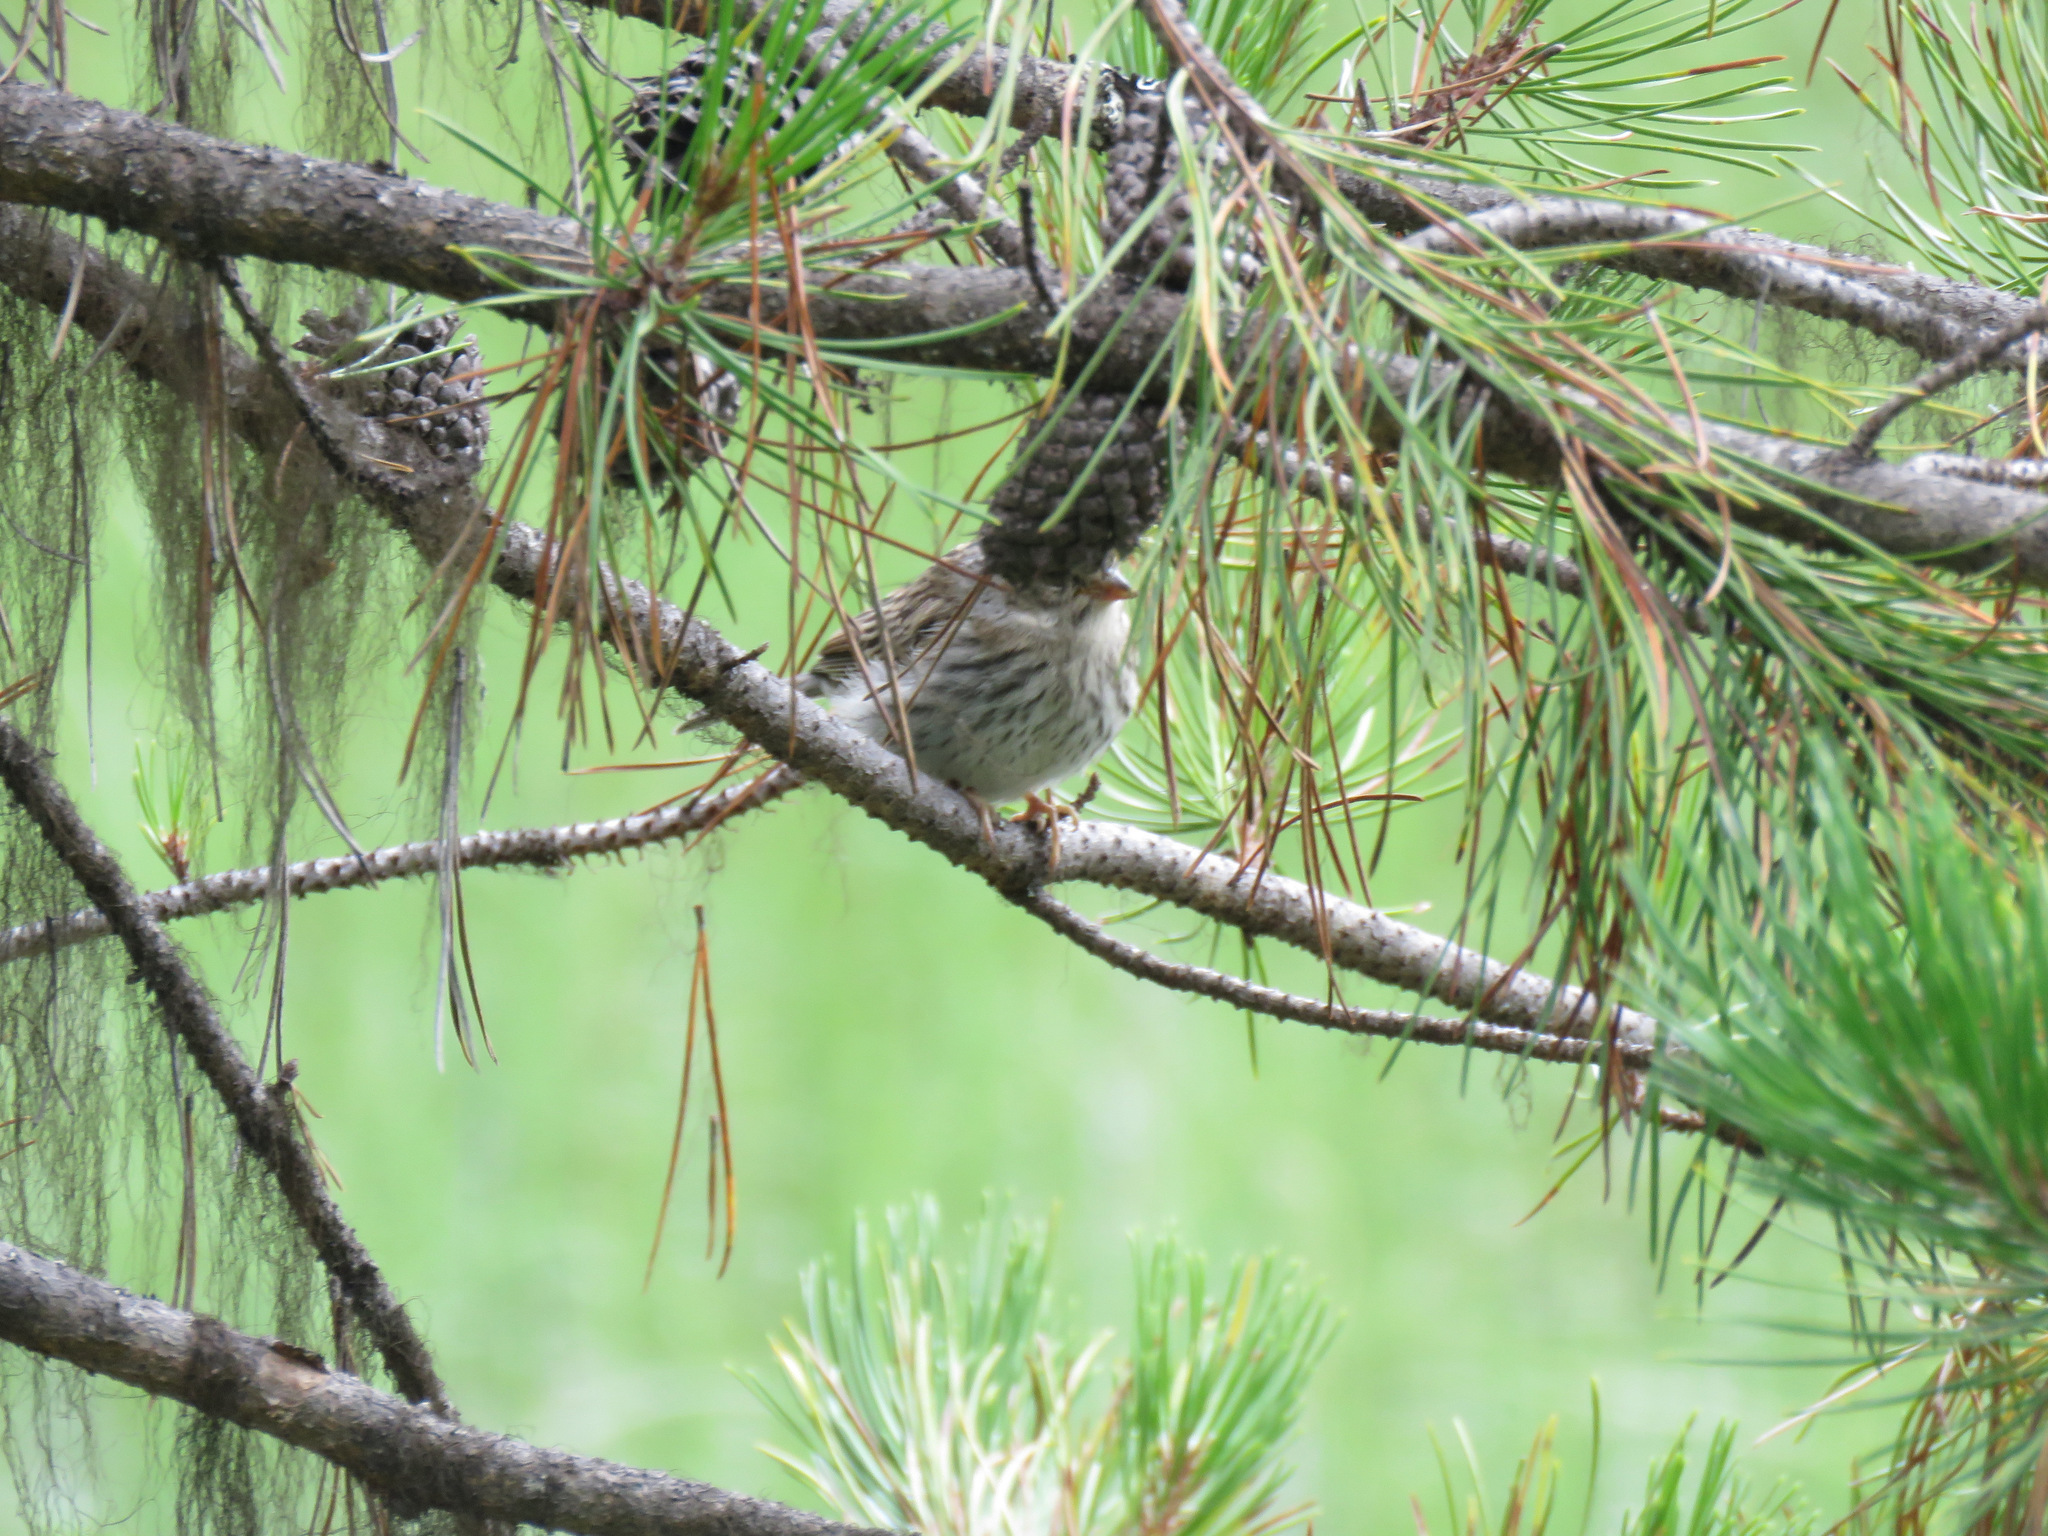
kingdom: Animalia
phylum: Chordata
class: Aves
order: Passeriformes
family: Passerellidae
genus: Spizella
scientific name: Spizella passerina
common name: Chipping sparrow
